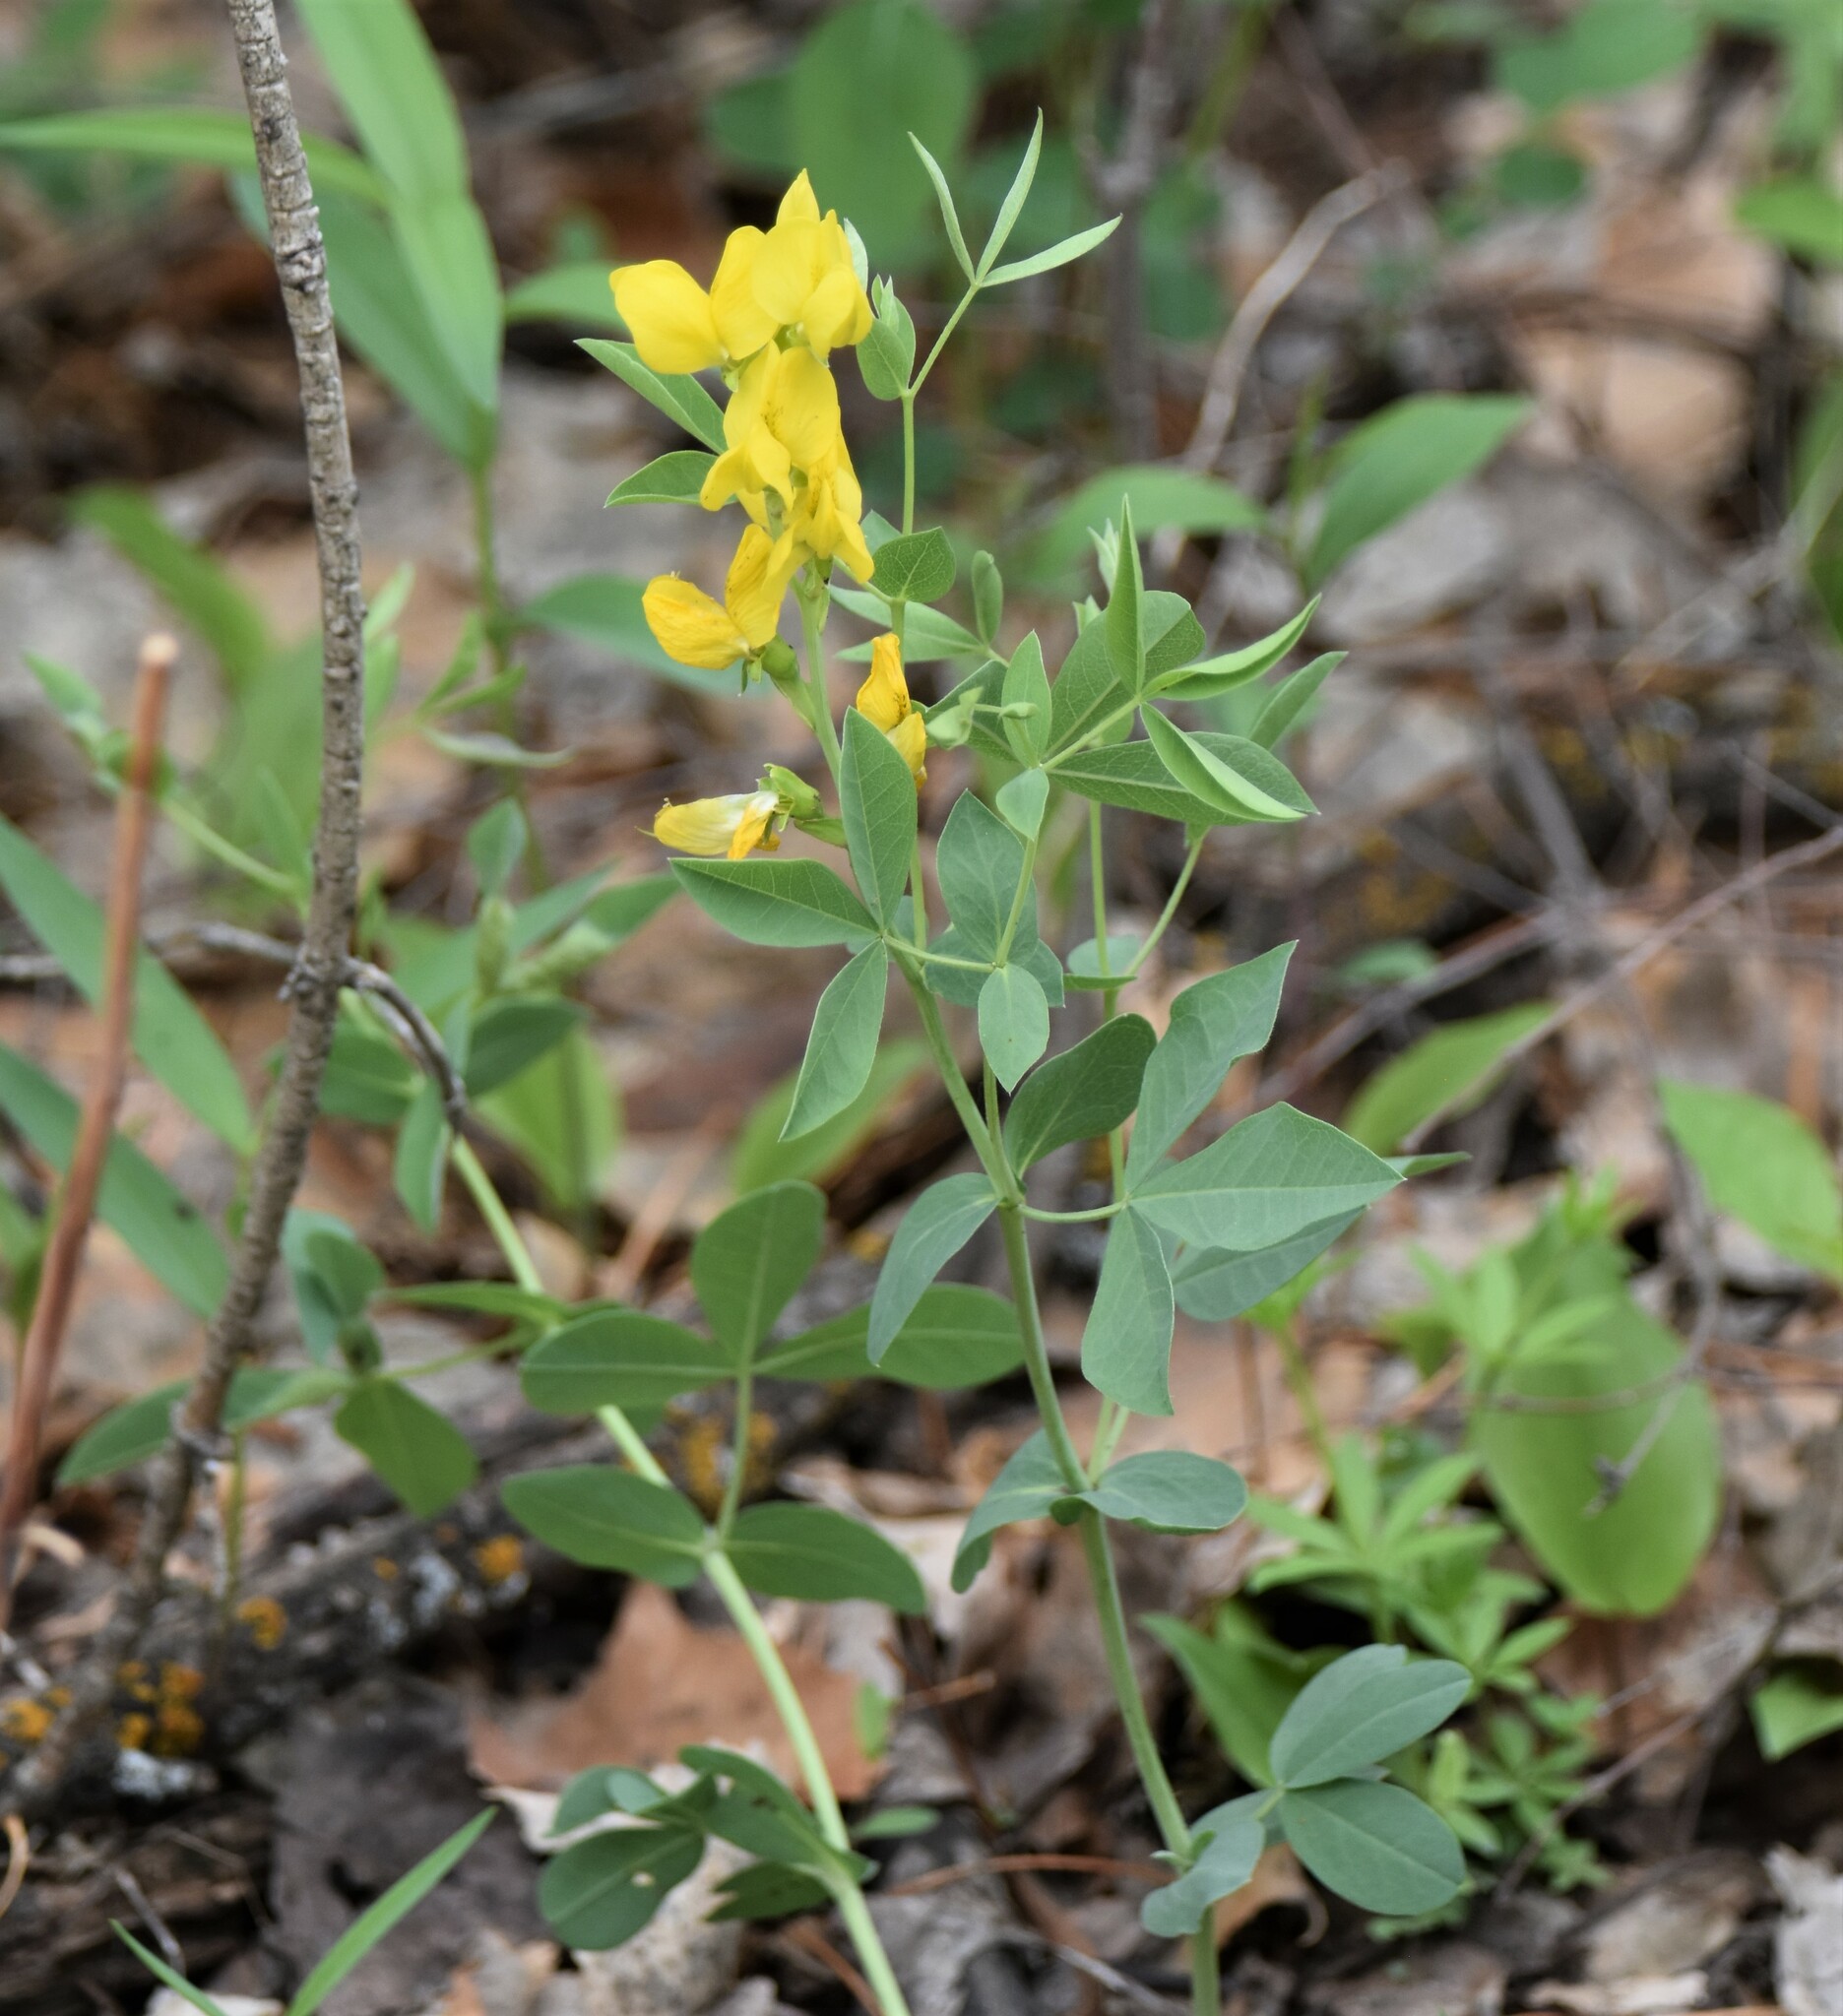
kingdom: Plantae
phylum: Tracheophyta
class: Magnoliopsida
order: Fabales
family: Fabaceae
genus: Thermopsis
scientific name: Thermopsis rhombifolia
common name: Circle-pod-pea
